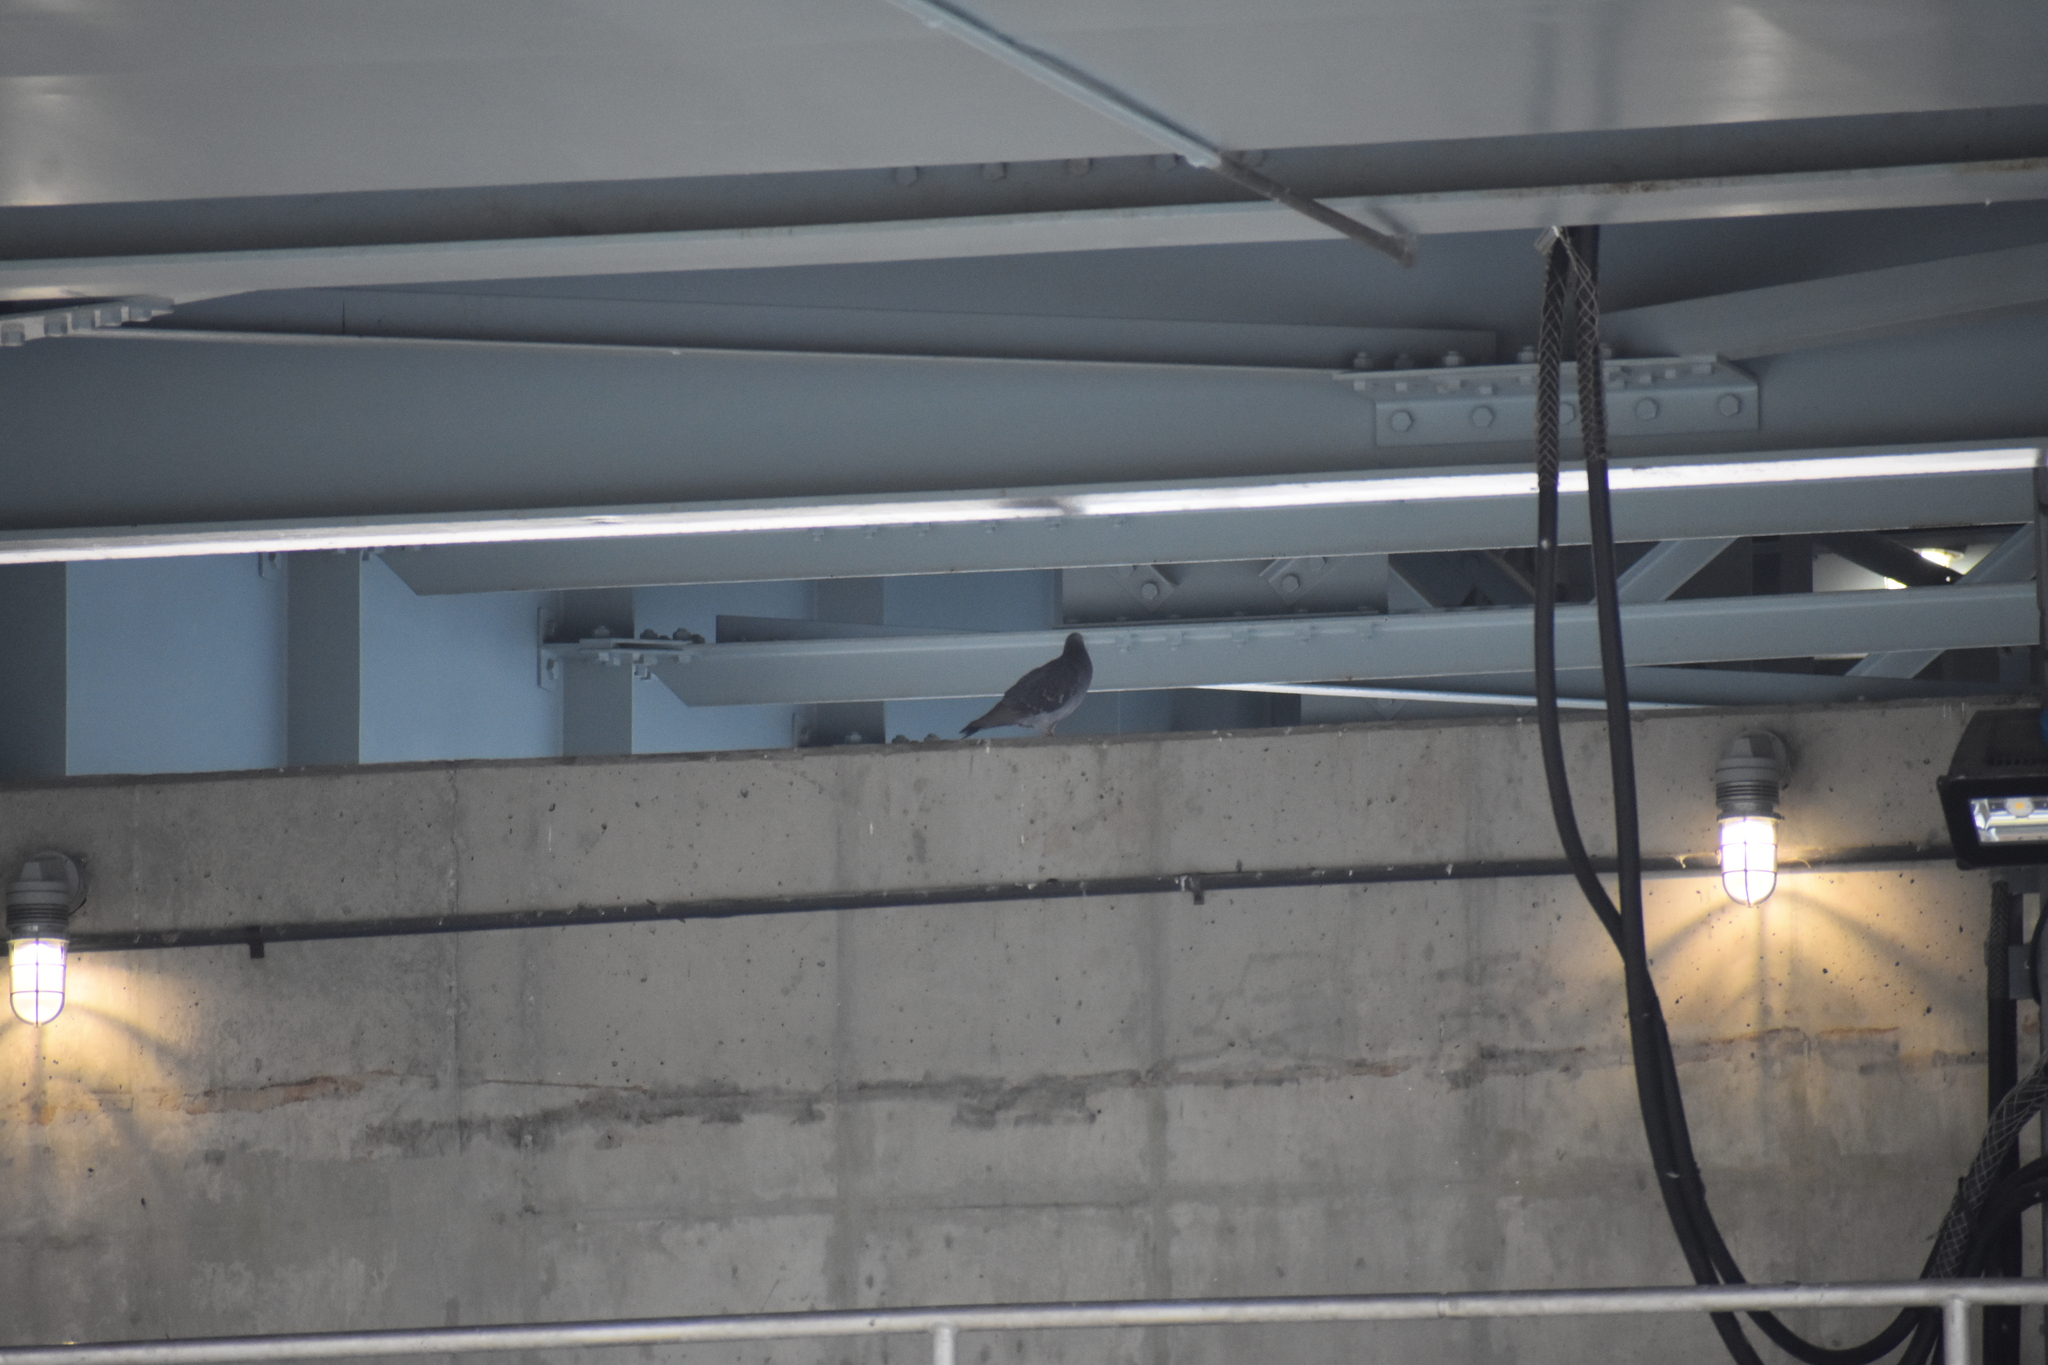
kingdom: Animalia
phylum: Chordata
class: Aves
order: Columbiformes
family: Columbidae
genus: Columba
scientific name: Columba livia
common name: Rock pigeon
